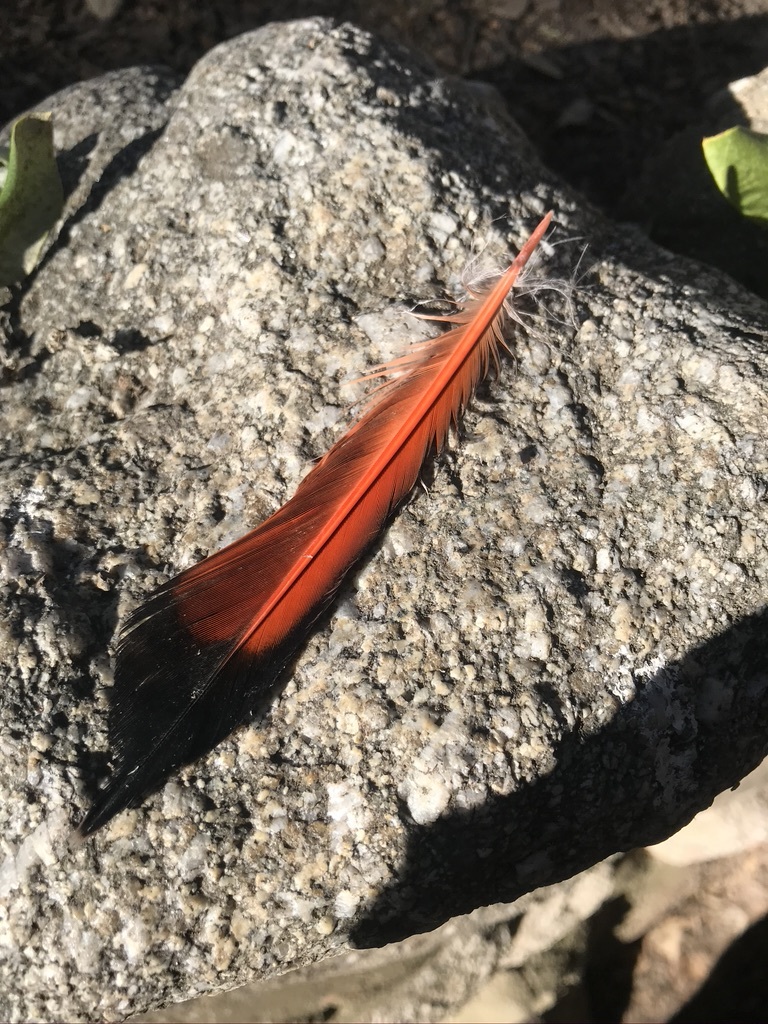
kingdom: Animalia
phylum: Chordata
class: Aves
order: Piciformes
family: Picidae
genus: Colaptes
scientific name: Colaptes auratus
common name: Northern flicker
